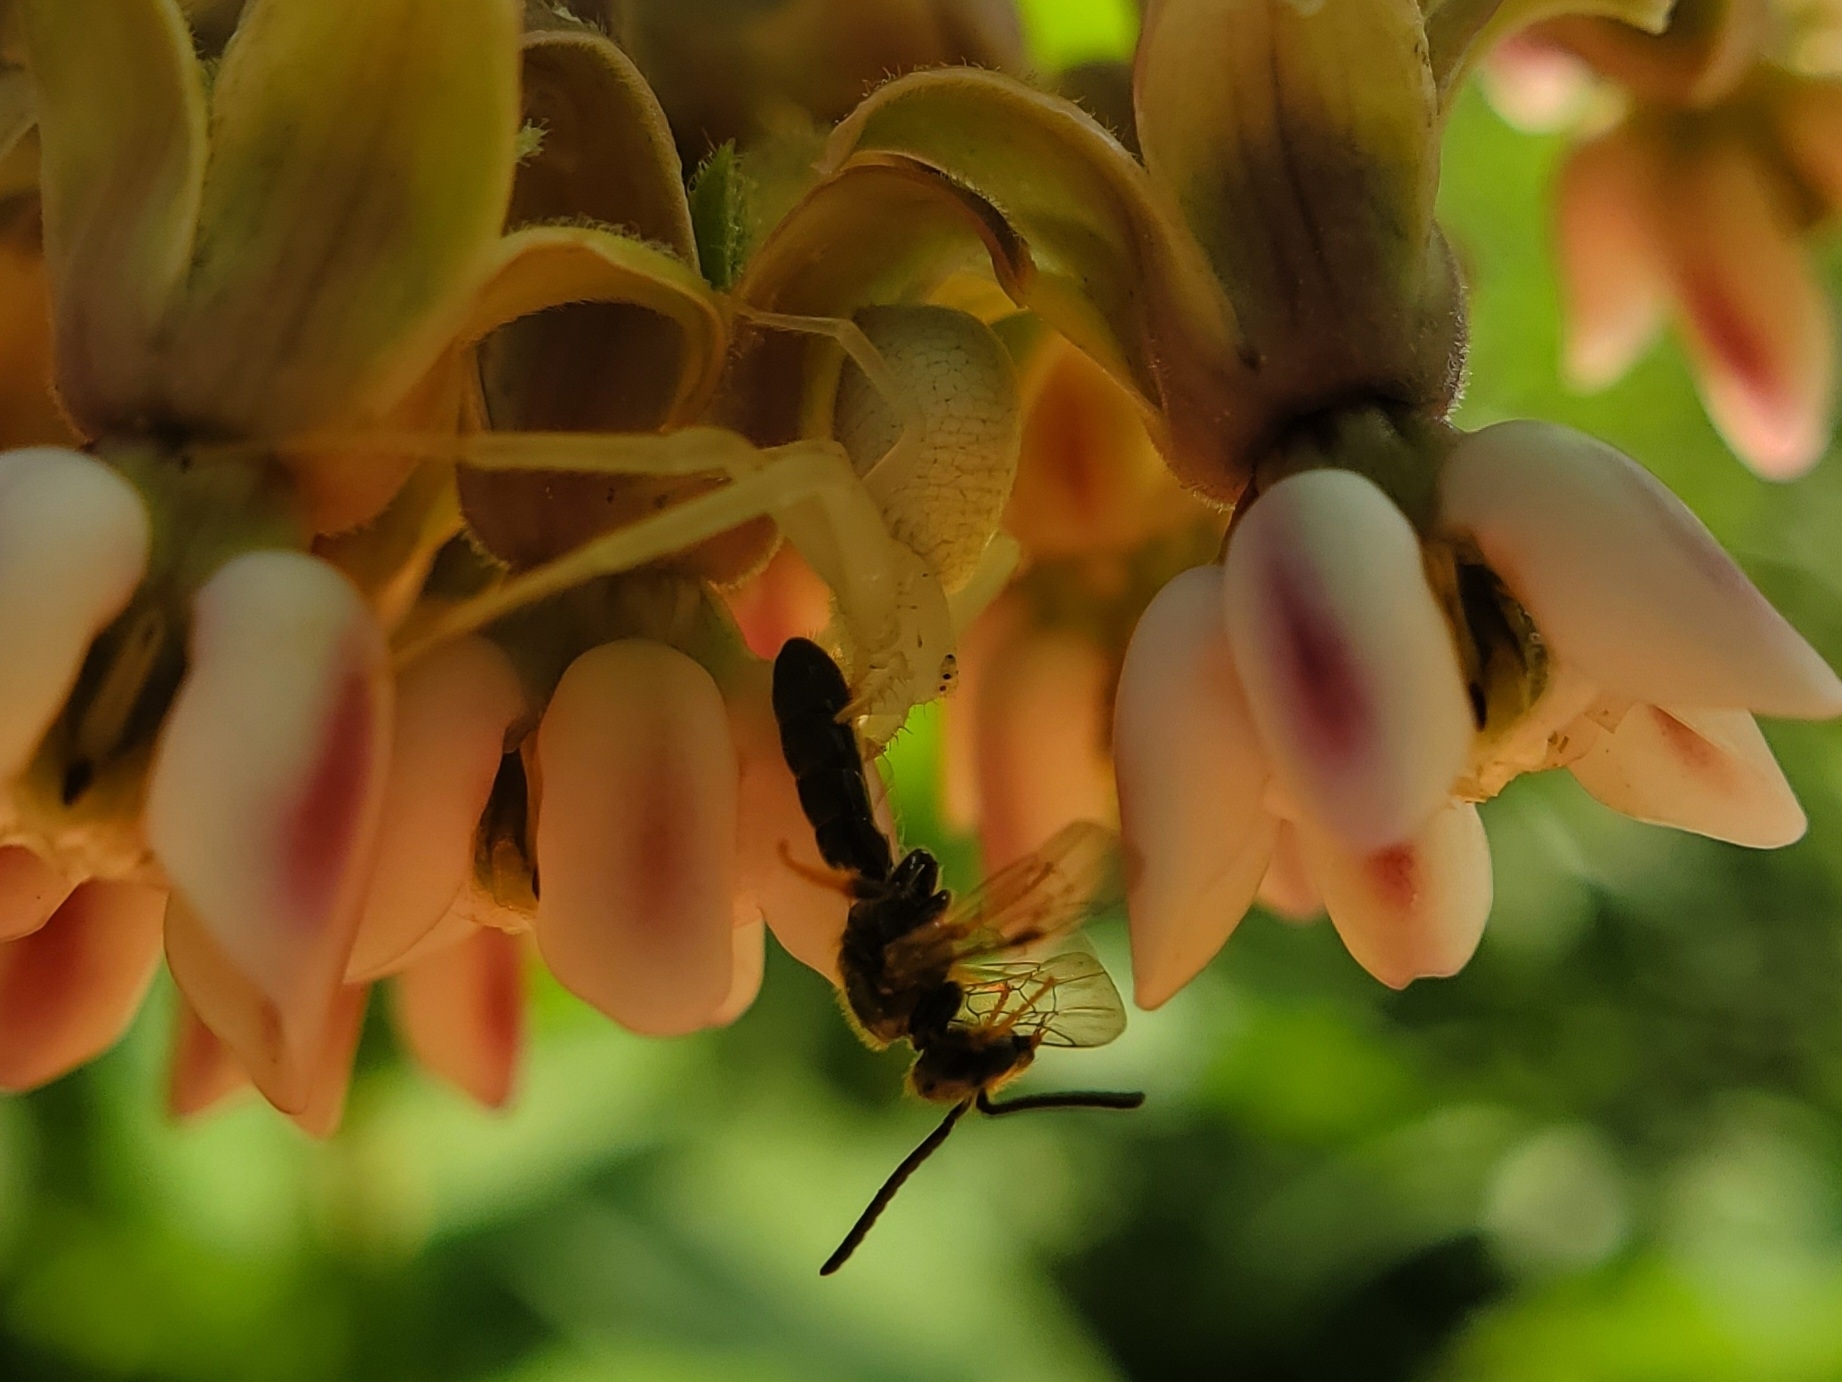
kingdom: Animalia
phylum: Arthropoda
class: Arachnida
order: Araneae
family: Thomisidae
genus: Misumessus
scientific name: Misumessus oblongus
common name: American green crab spider
